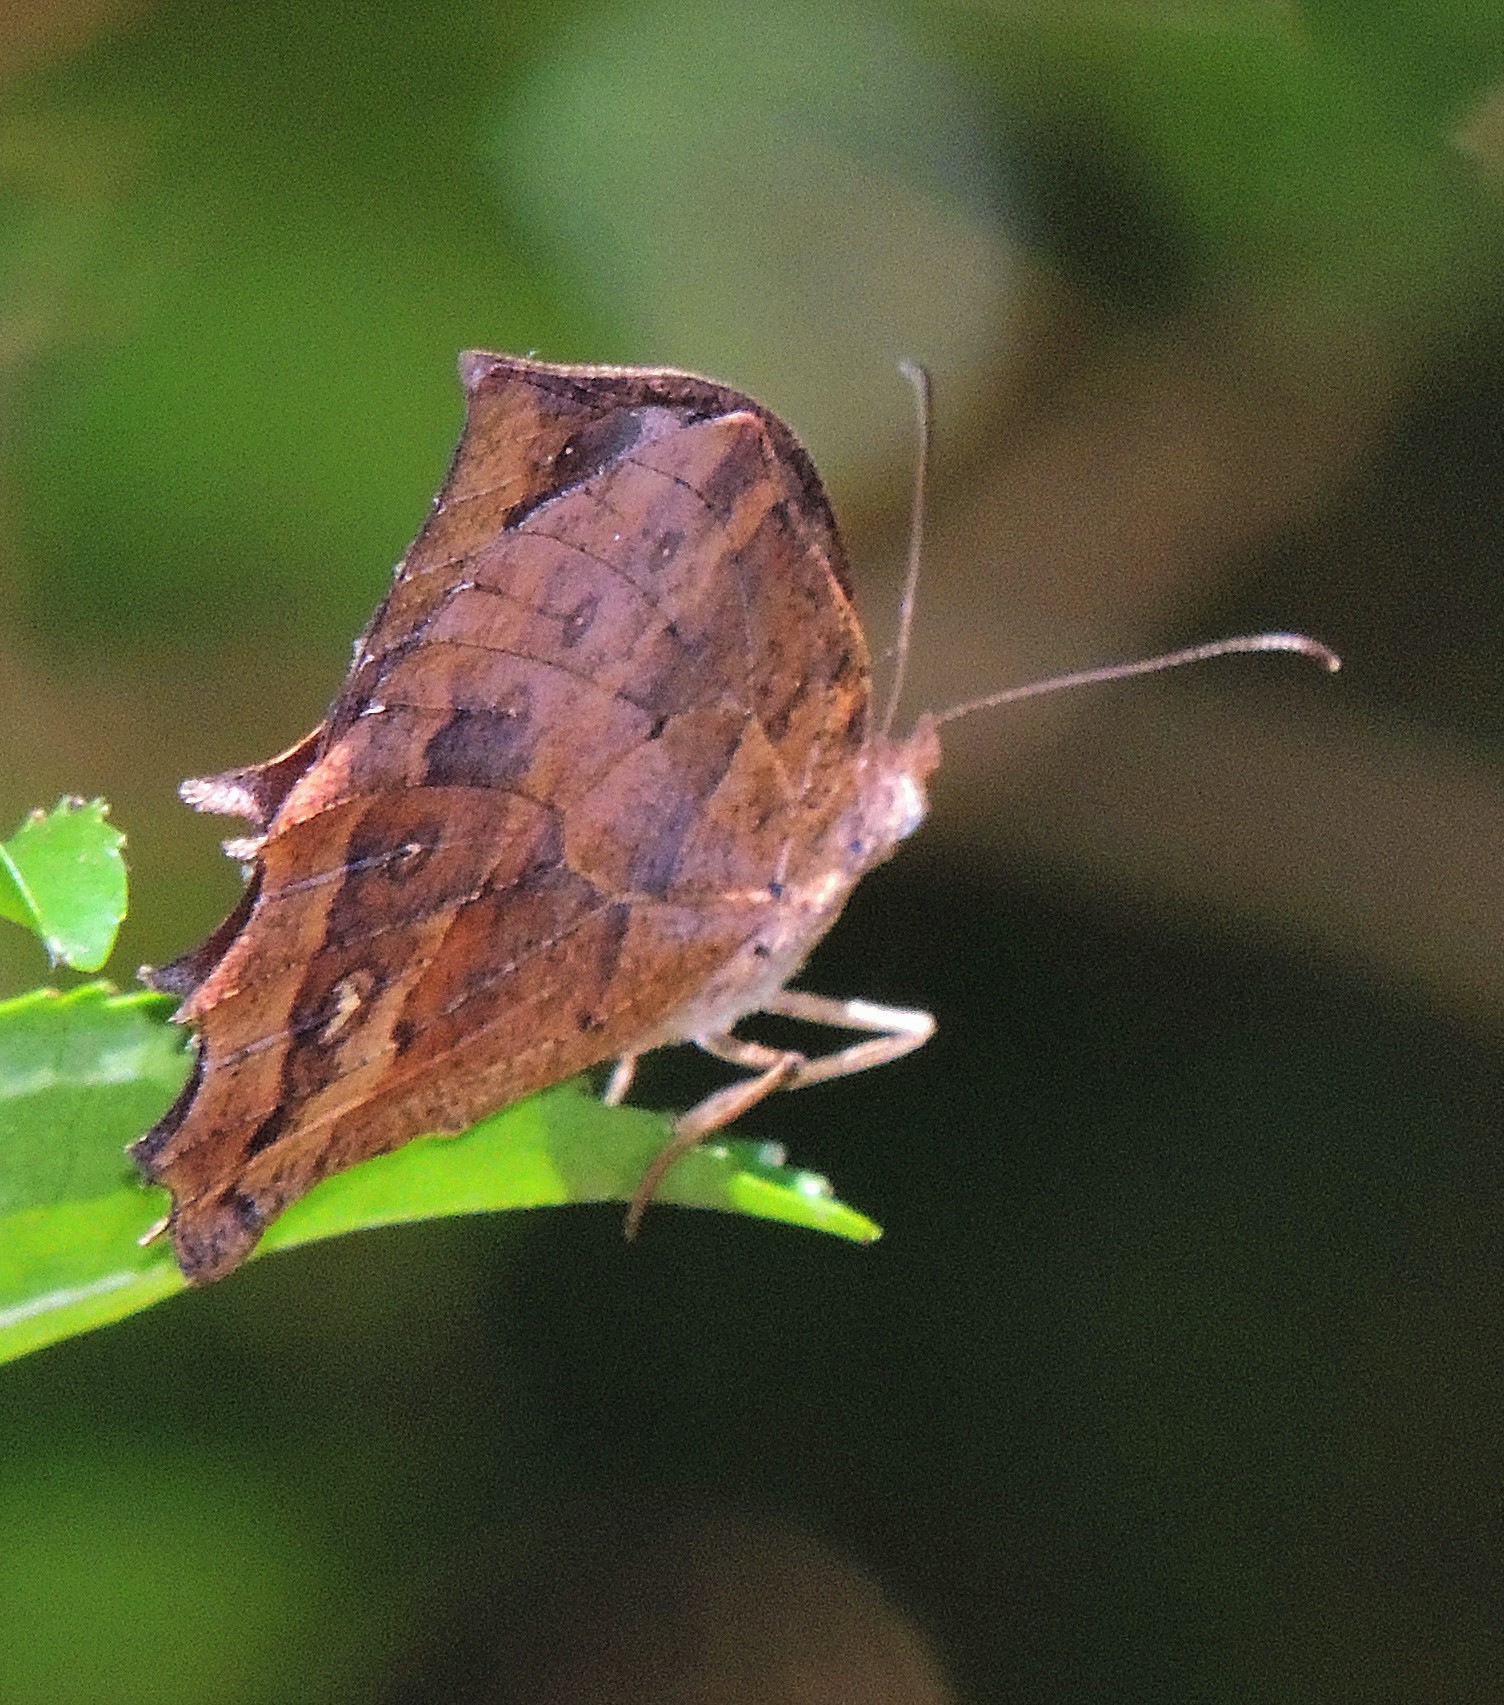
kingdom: Animalia
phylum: Arthropoda
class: Insecta
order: Lepidoptera
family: Nymphalidae
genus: Taguaiba
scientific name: Taguaiba
